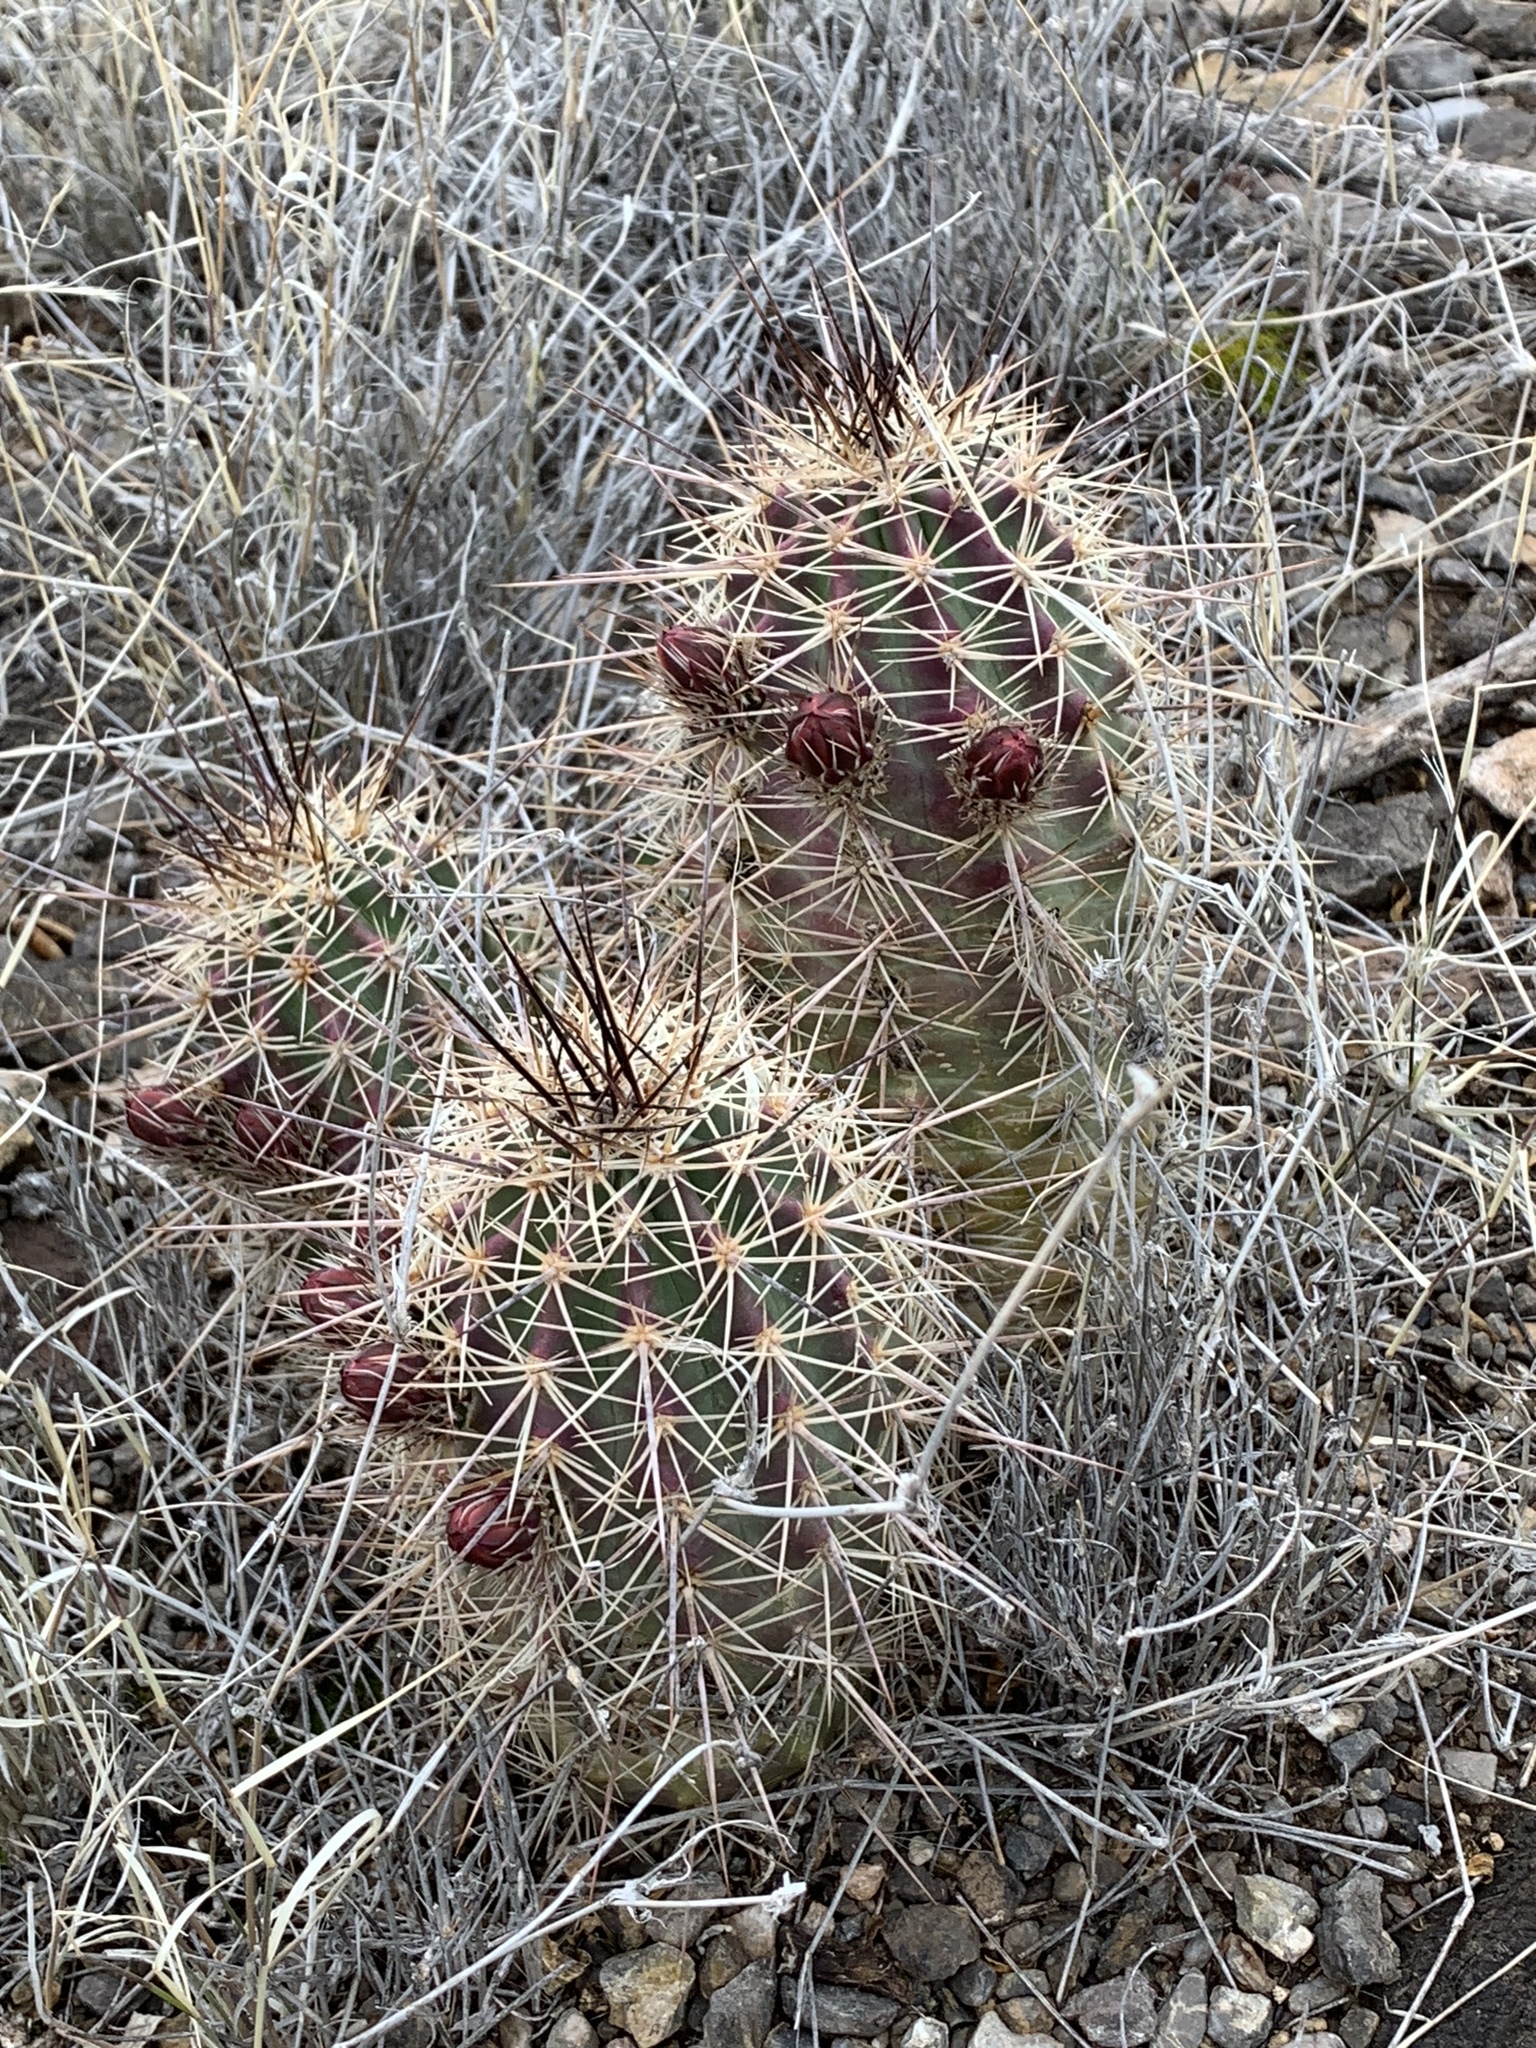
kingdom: Plantae
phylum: Tracheophyta
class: Magnoliopsida
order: Caryophyllales
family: Cactaceae
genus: Echinocereus
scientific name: Echinocereus coccineus
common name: Scarlet hedgehog cactus
